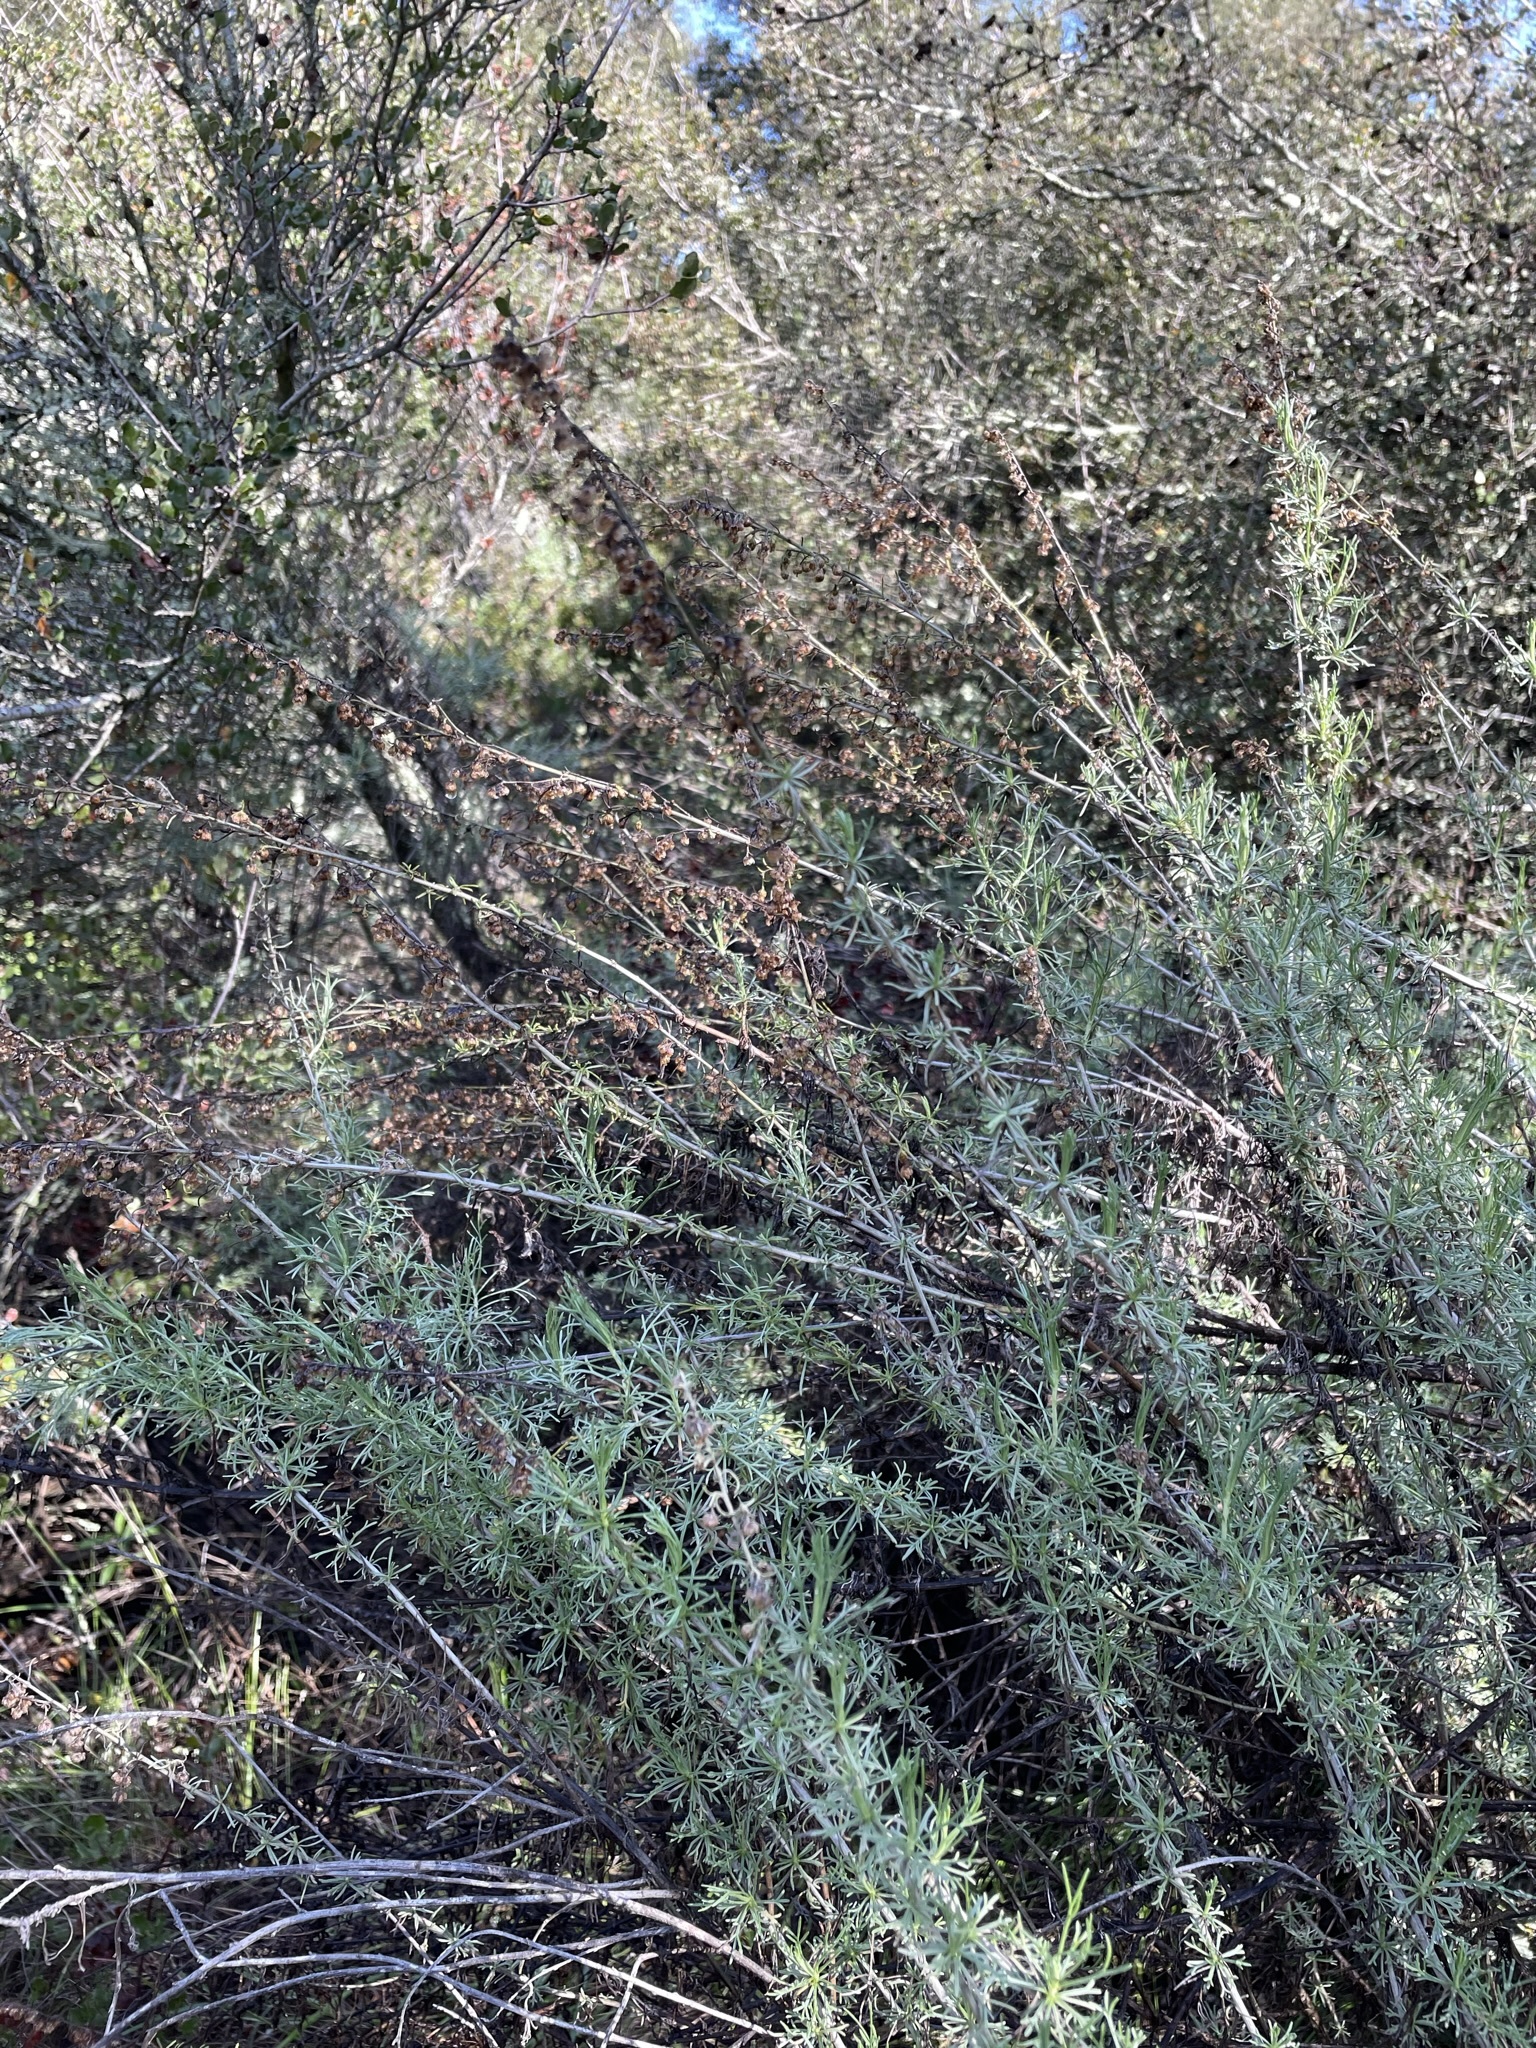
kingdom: Plantae
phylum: Tracheophyta
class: Magnoliopsida
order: Asterales
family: Asteraceae
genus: Artemisia
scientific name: Artemisia californica
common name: California sagebrush
